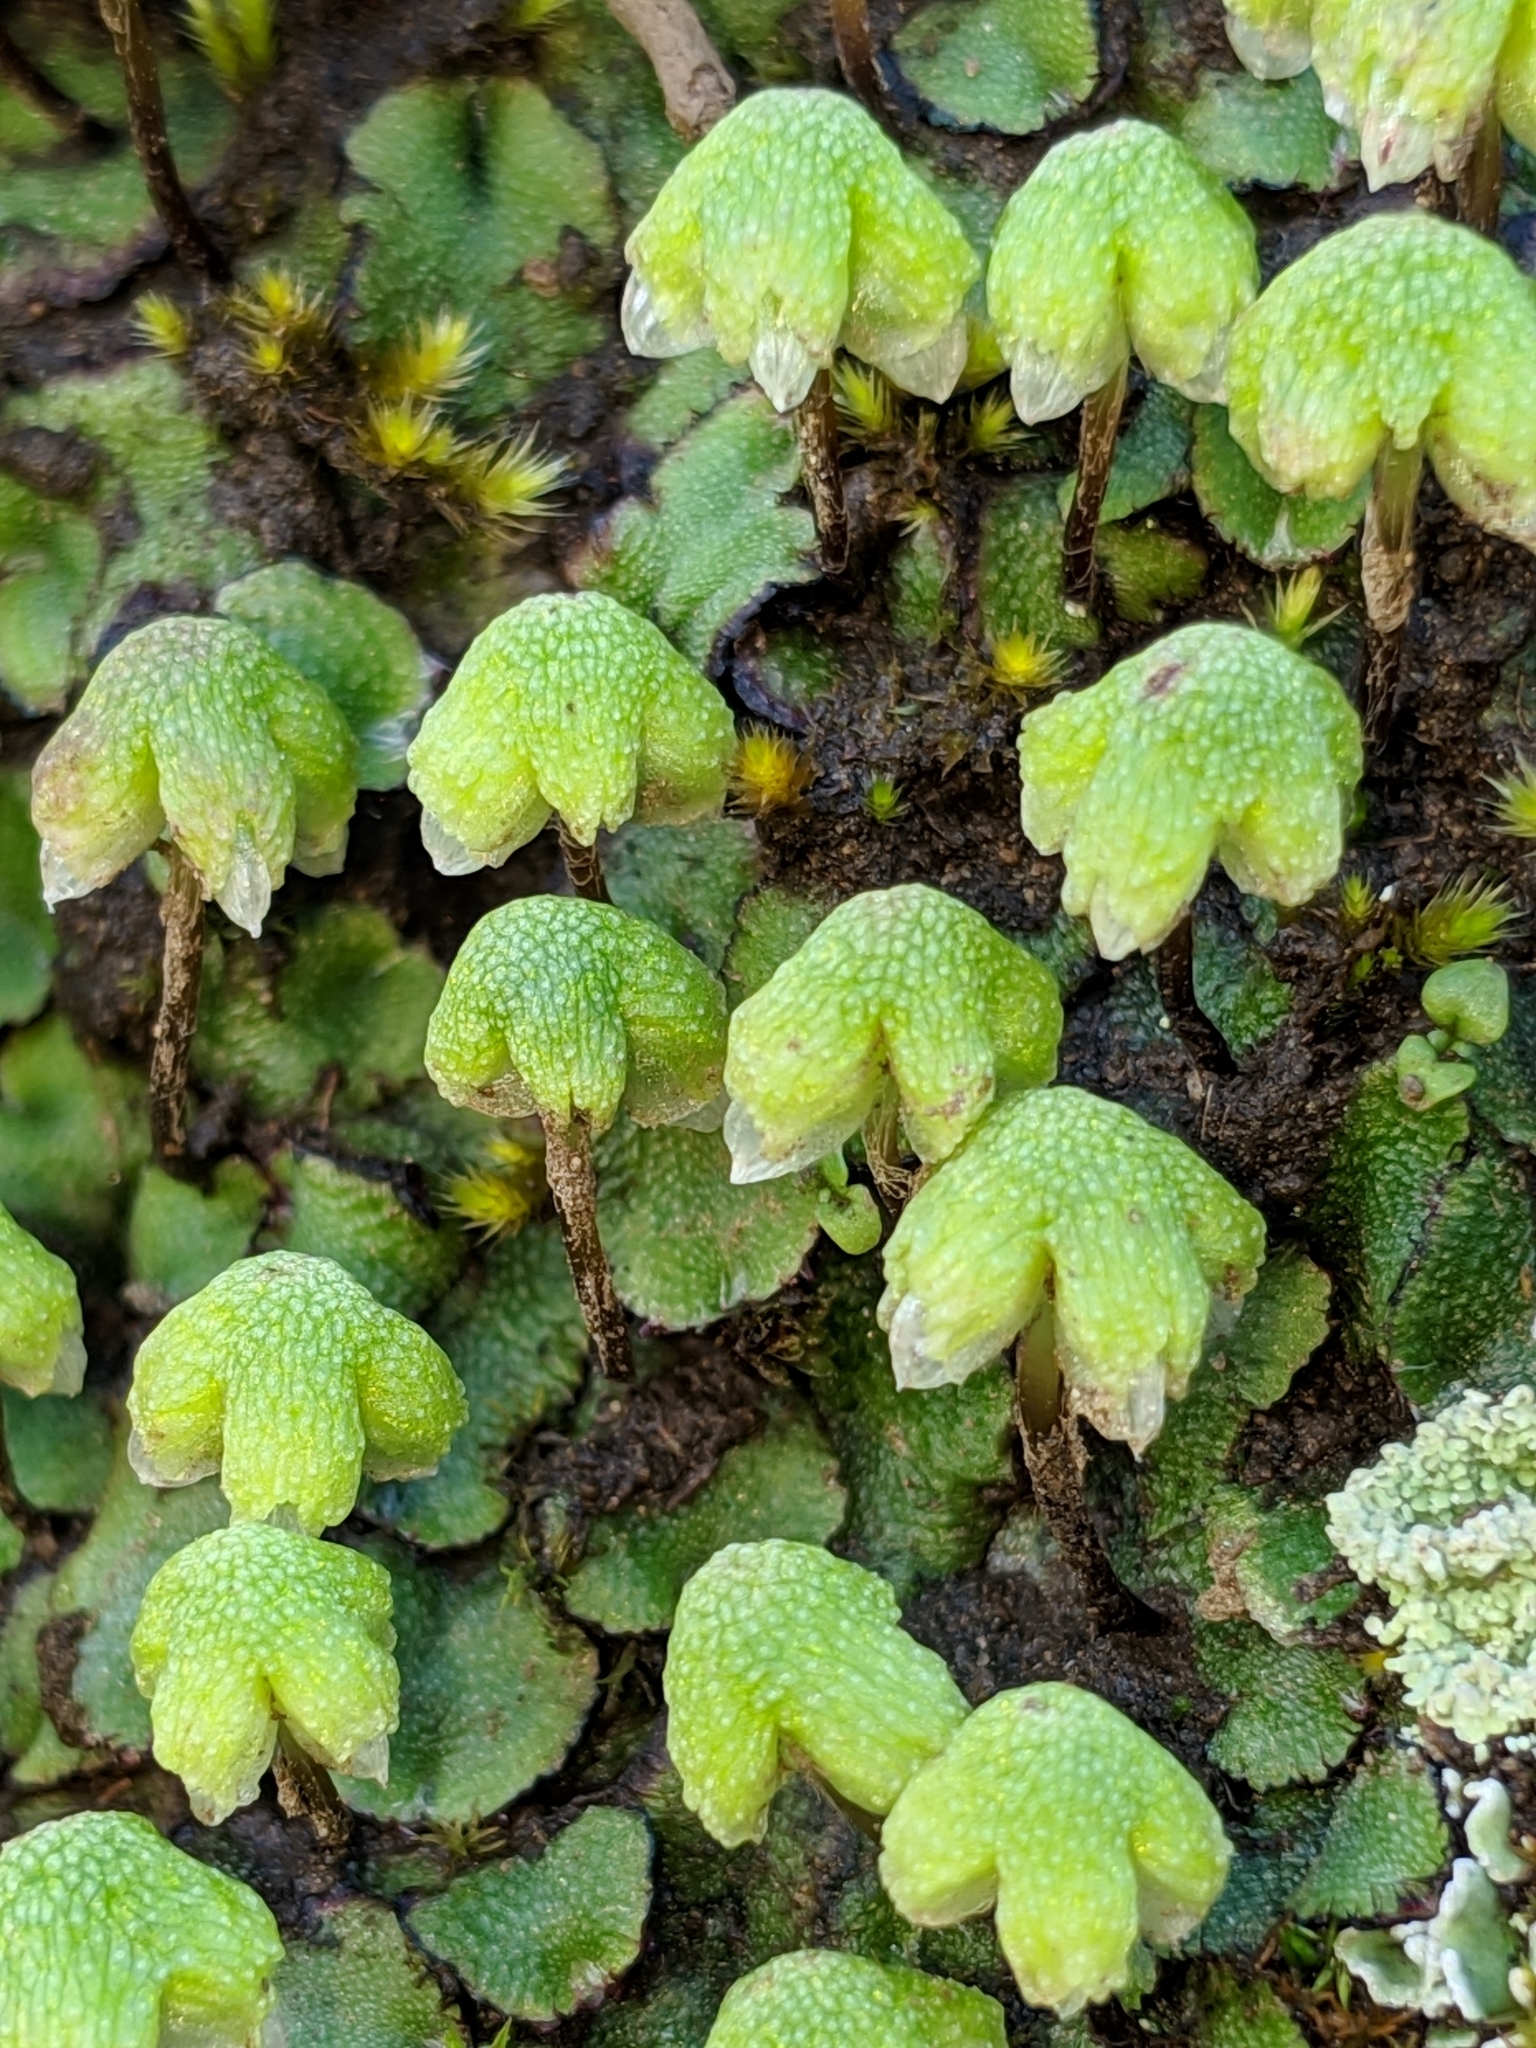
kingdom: Plantae
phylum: Marchantiophyta
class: Marchantiopsida
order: Marchantiales
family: Aytoniaceae
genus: Asterella
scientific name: Asterella californica
